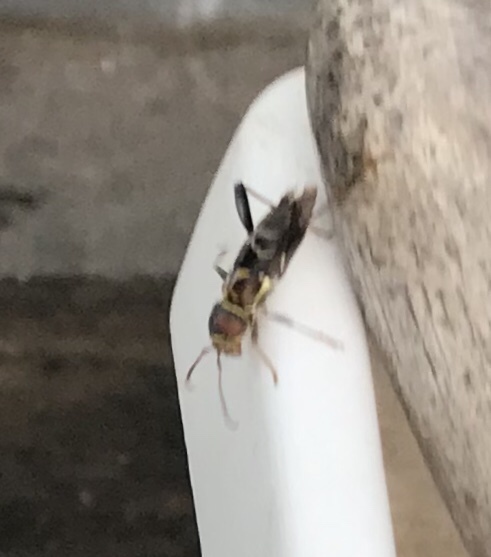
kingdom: Animalia
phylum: Arthropoda
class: Insecta
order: Coleoptera
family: Cerambycidae
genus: Neoclytus
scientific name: Neoclytus mucronatus
